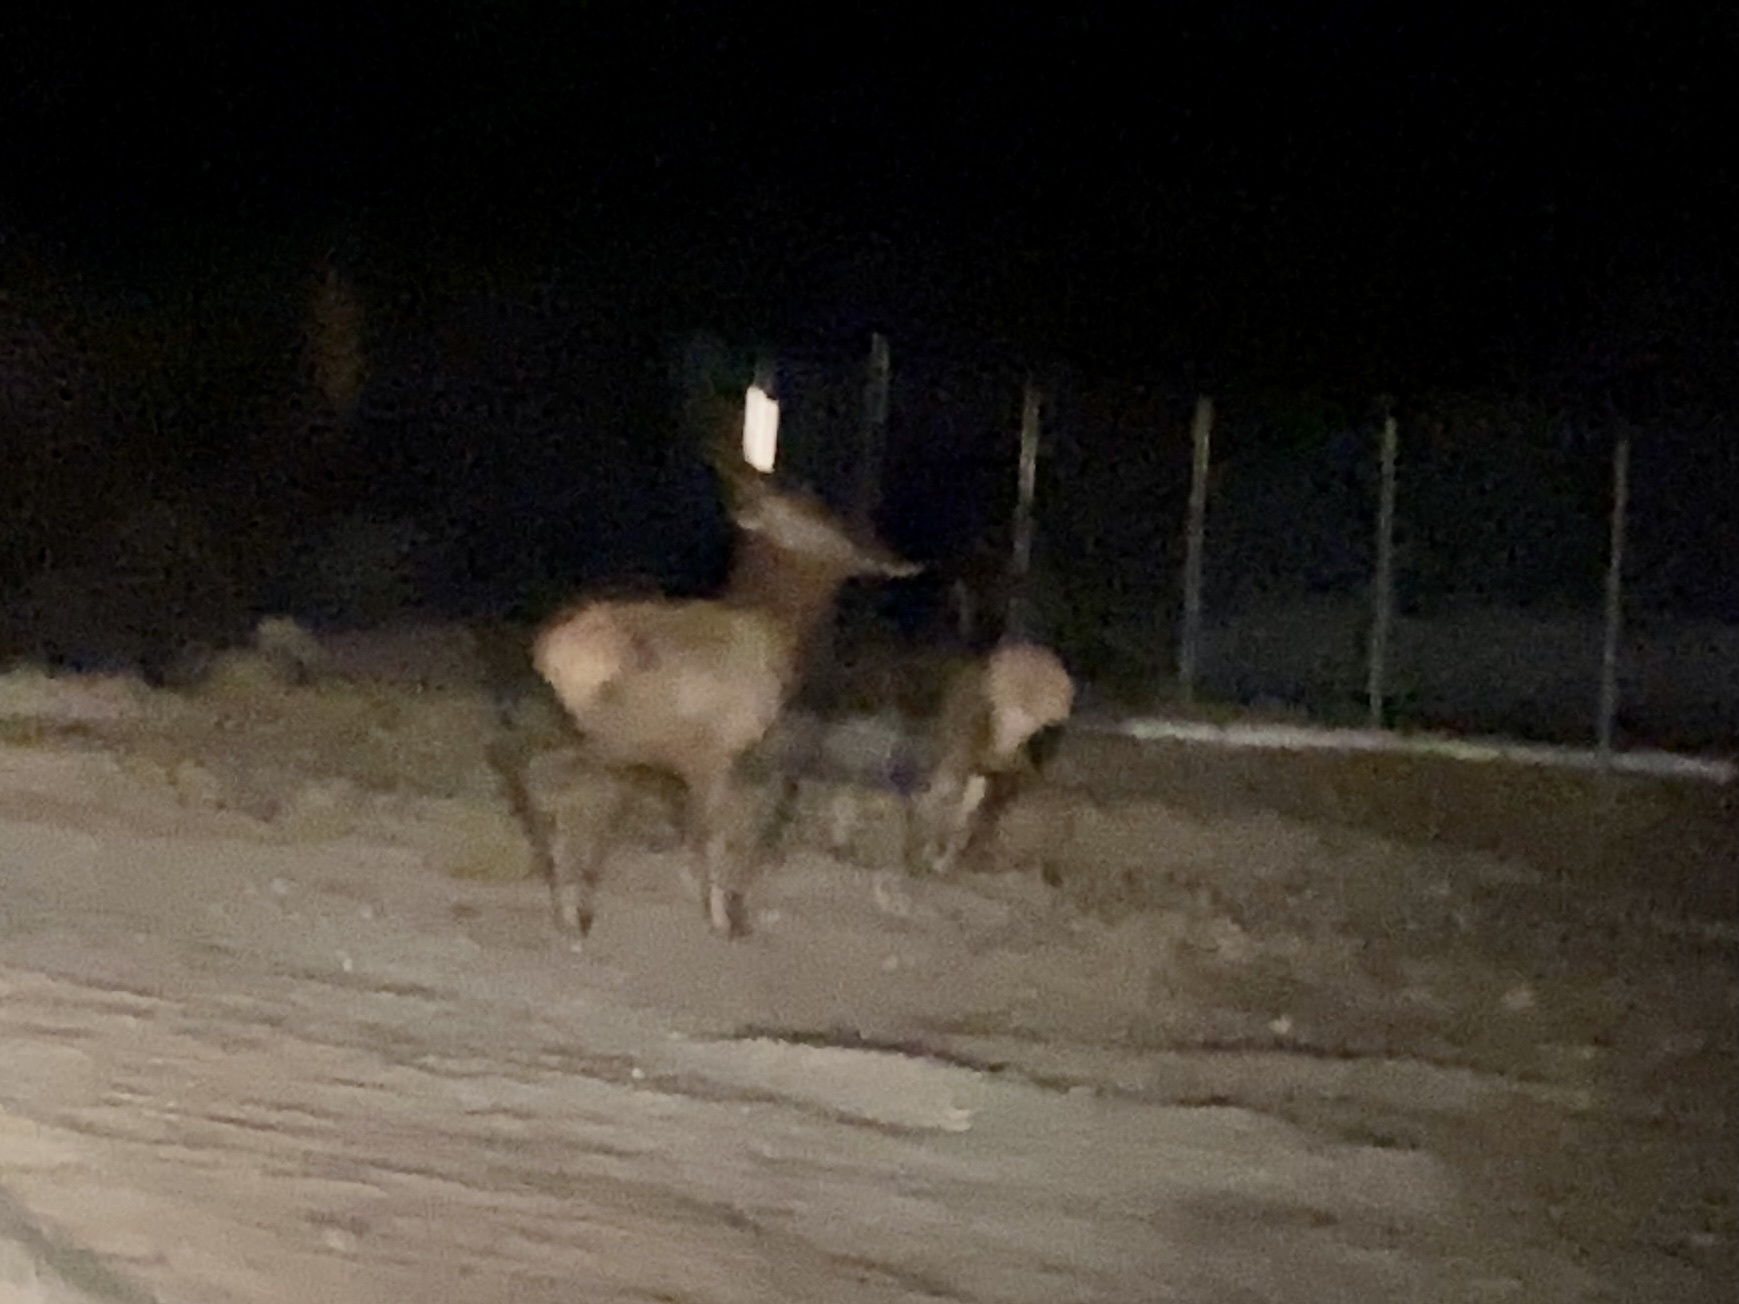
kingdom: Animalia
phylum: Chordata
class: Mammalia
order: Artiodactyla
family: Cervidae
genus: Cervus
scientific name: Cervus elaphus
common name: Red deer
